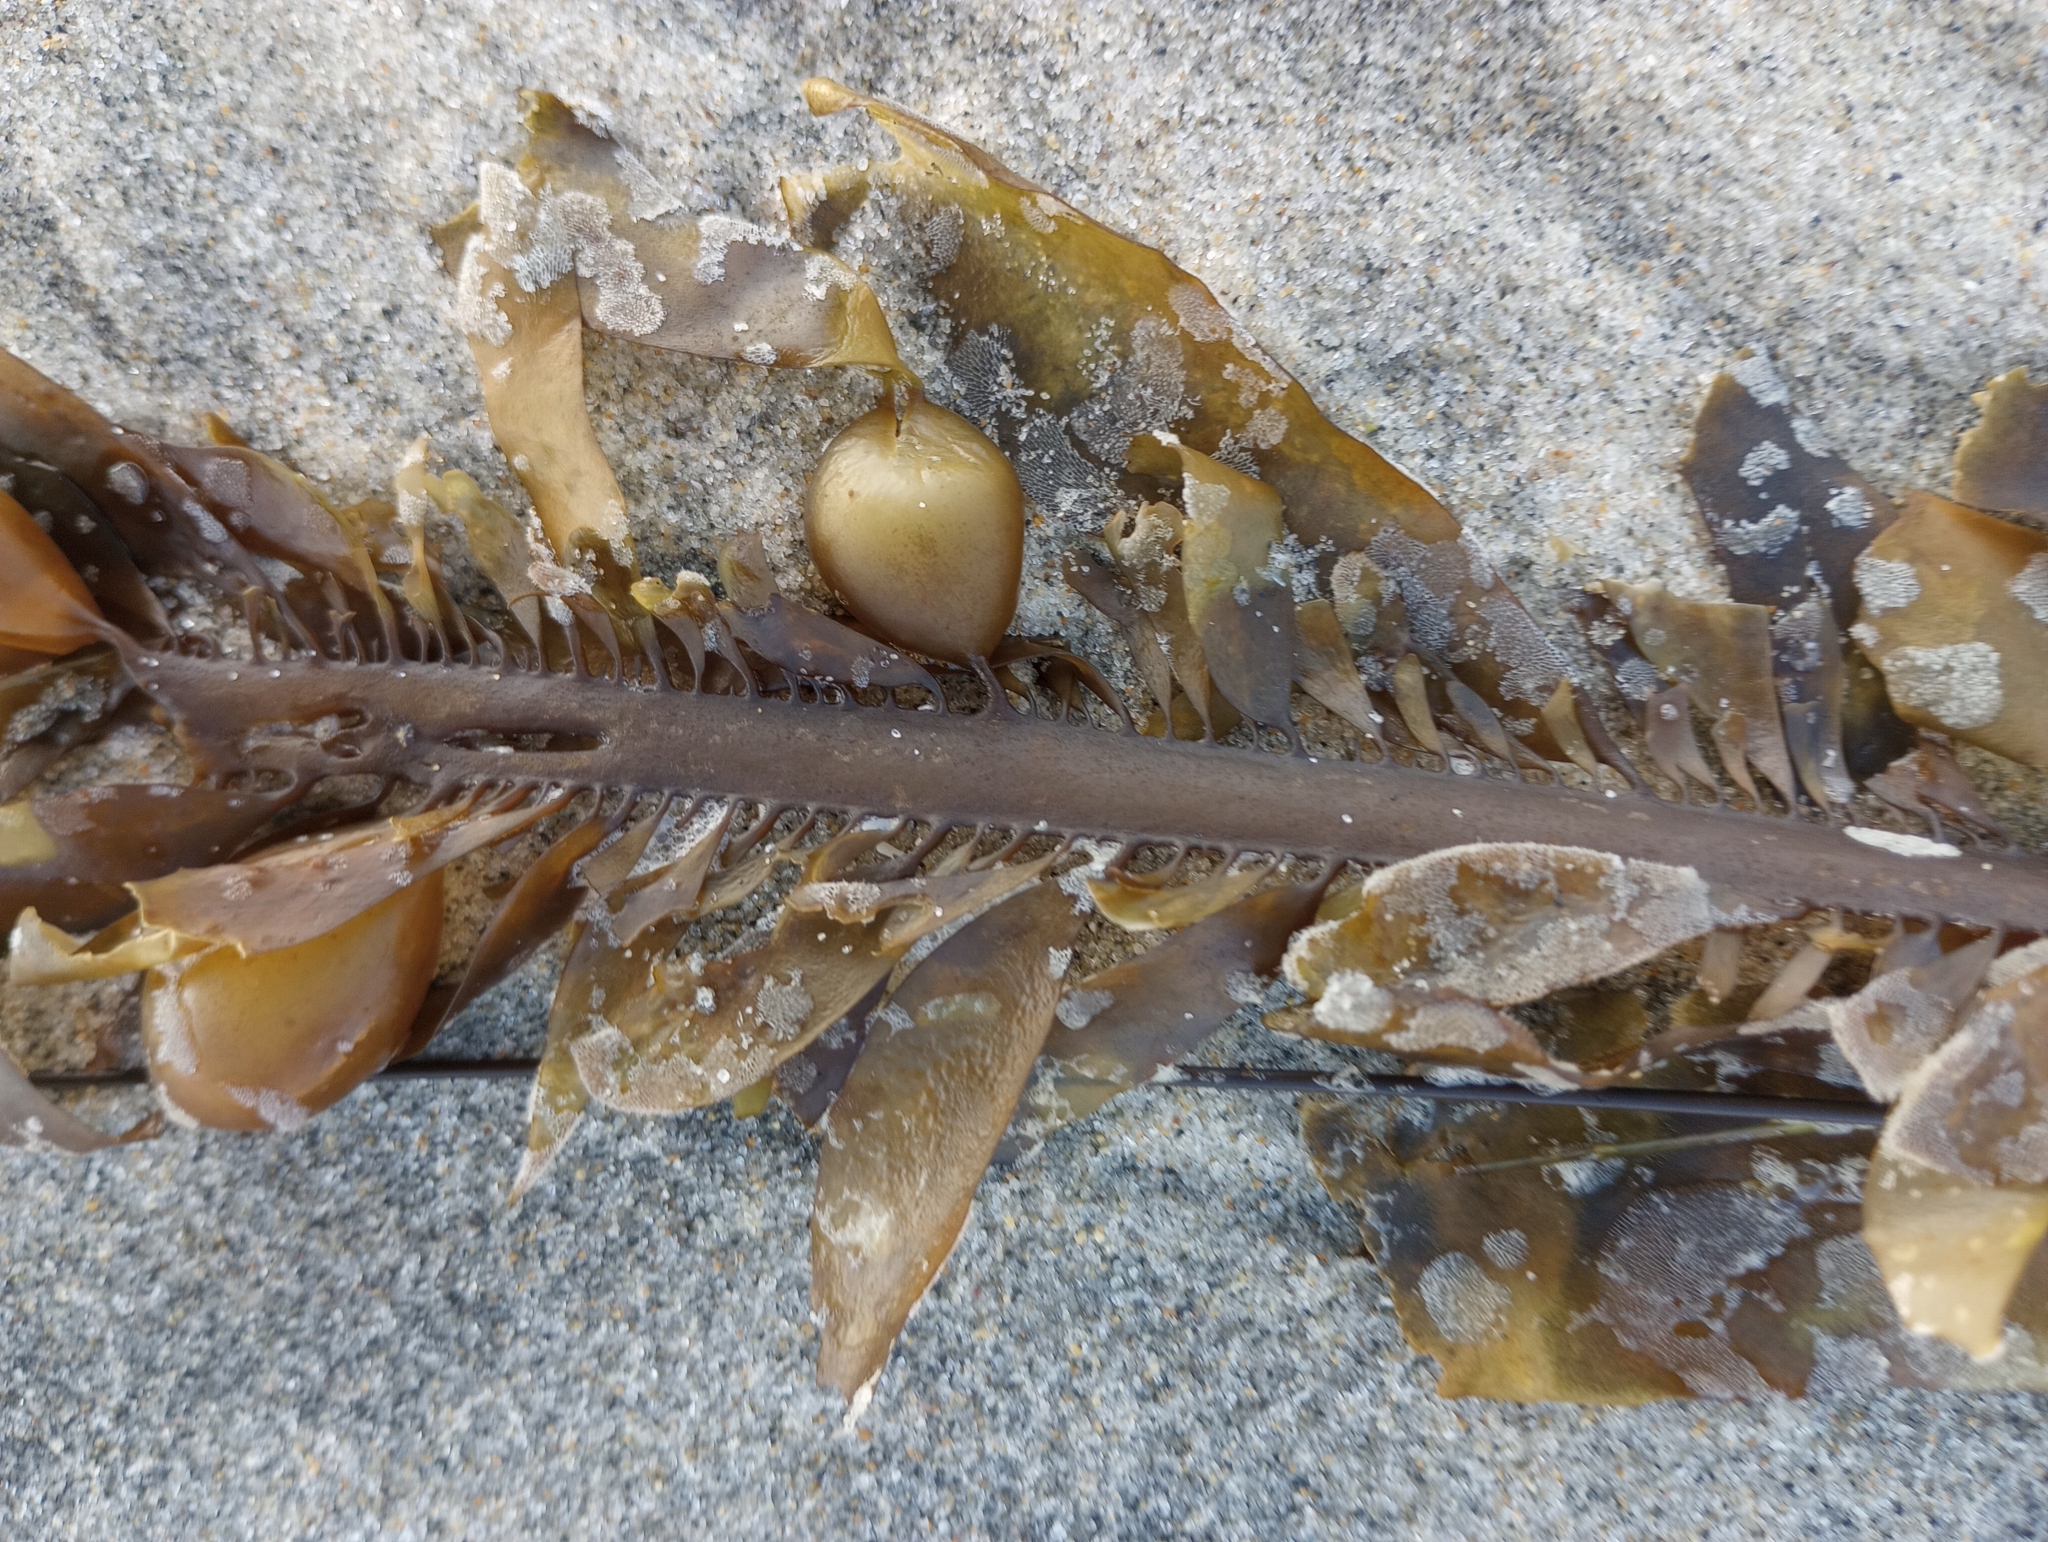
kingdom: Chromista
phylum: Ochrophyta
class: Phaeophyceae
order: Laminariales
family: Lessoniaceae
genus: Egregia
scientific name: Egregia menziesii
